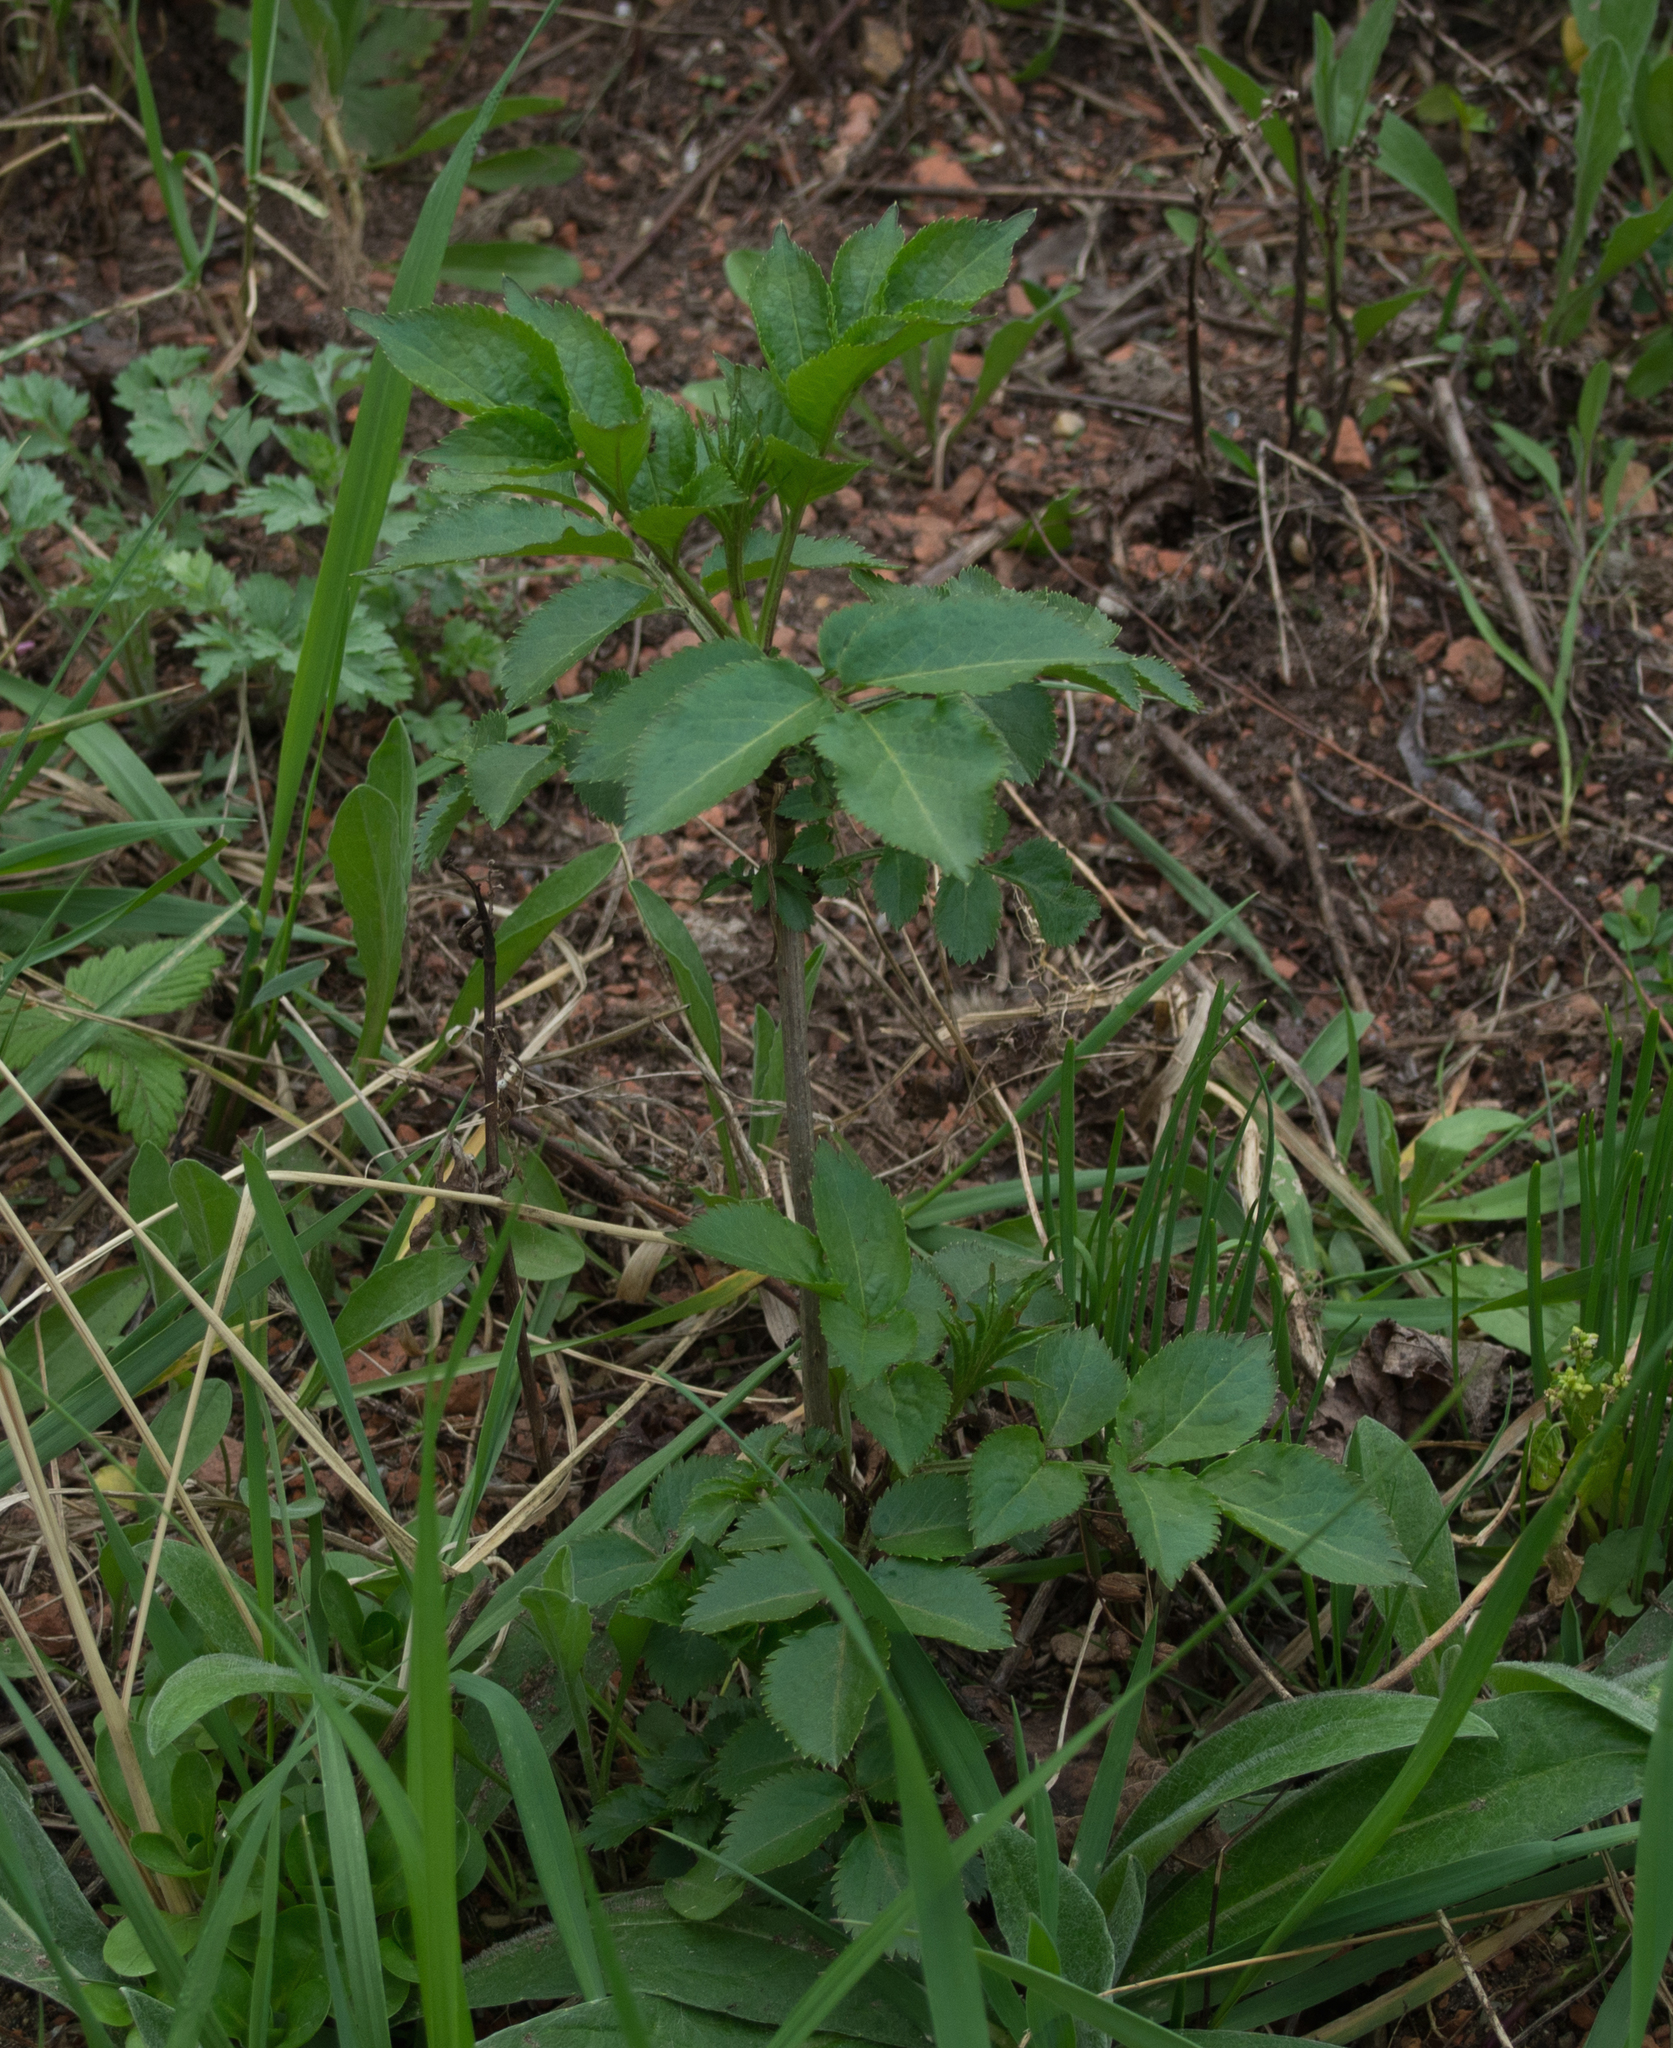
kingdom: Plantae
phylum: Tracheophyta
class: Magnoliopsida
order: Dipsacales
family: Viburnaceae
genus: Sambucus
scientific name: Sambucus nigra
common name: Elder
